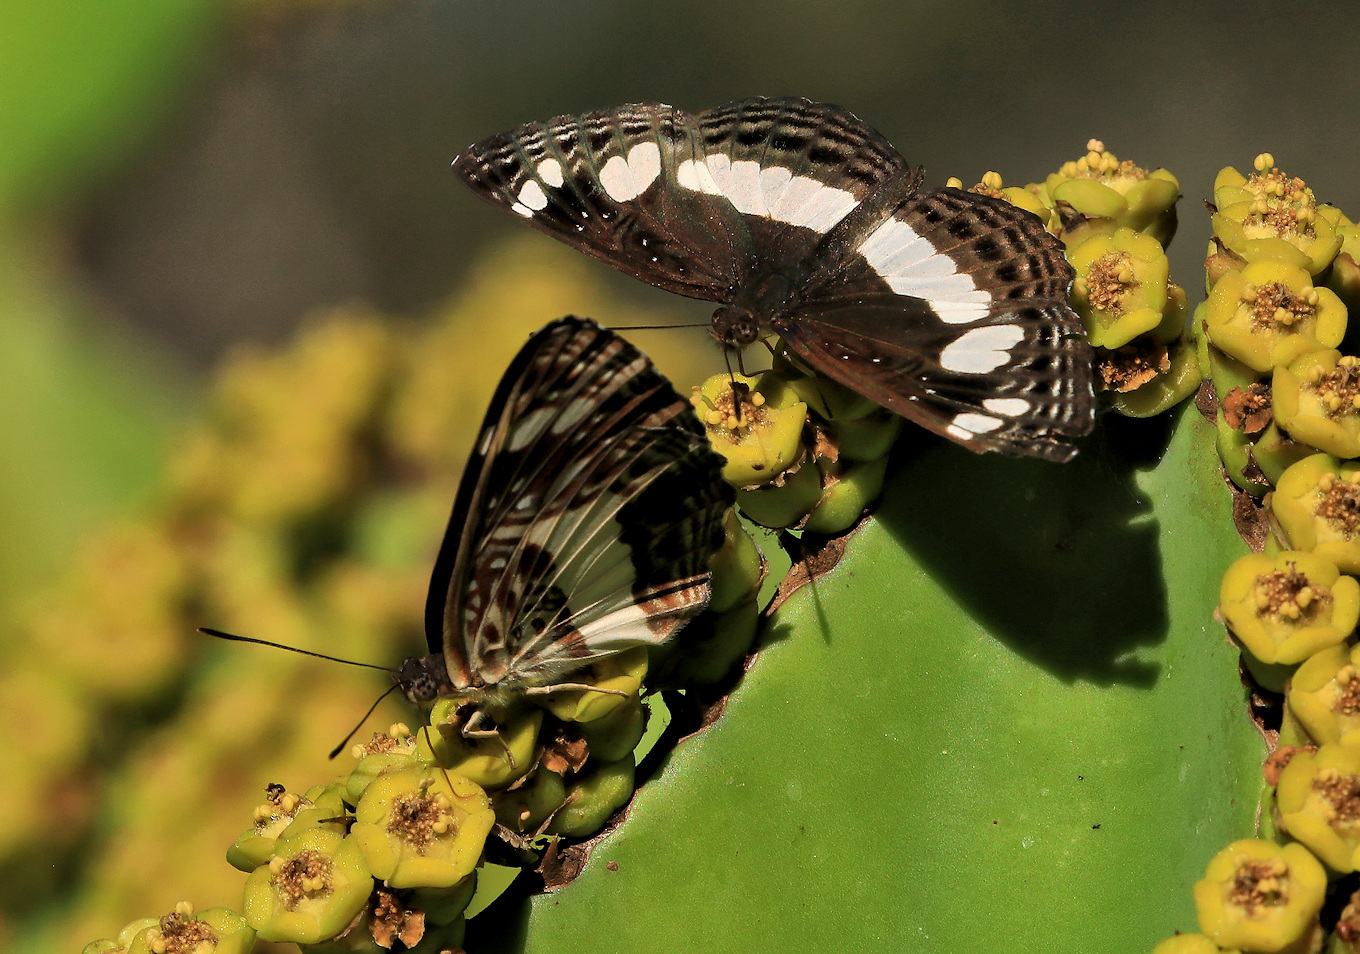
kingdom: Animalia
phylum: Arthropoda
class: Insecta
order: Lepidoptera
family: Nymphalidae
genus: Neptis
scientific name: Neptis saclava
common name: Small spotted sailor
